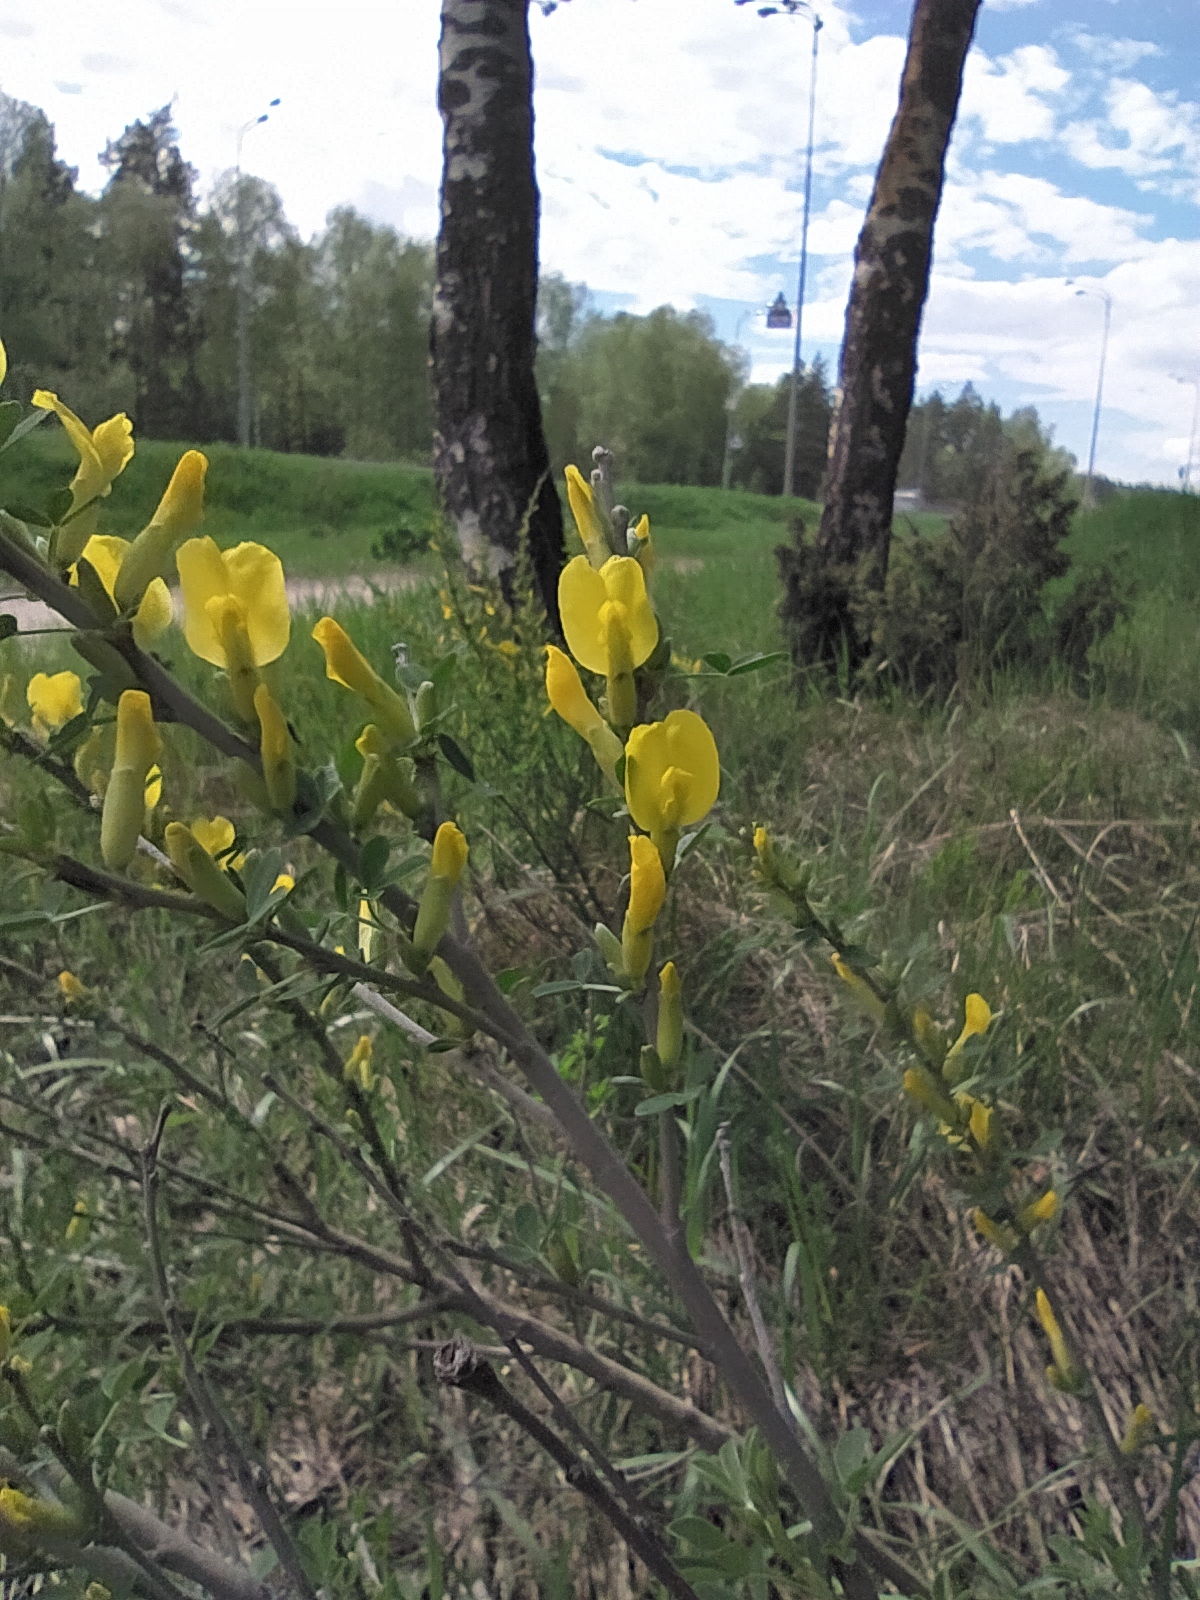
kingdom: Plantae
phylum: Tracheophyta
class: Magnoliopsida
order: Fabales
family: Fabaceae
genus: Chamaecytisus
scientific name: Chamaecytisus ruthenicus
